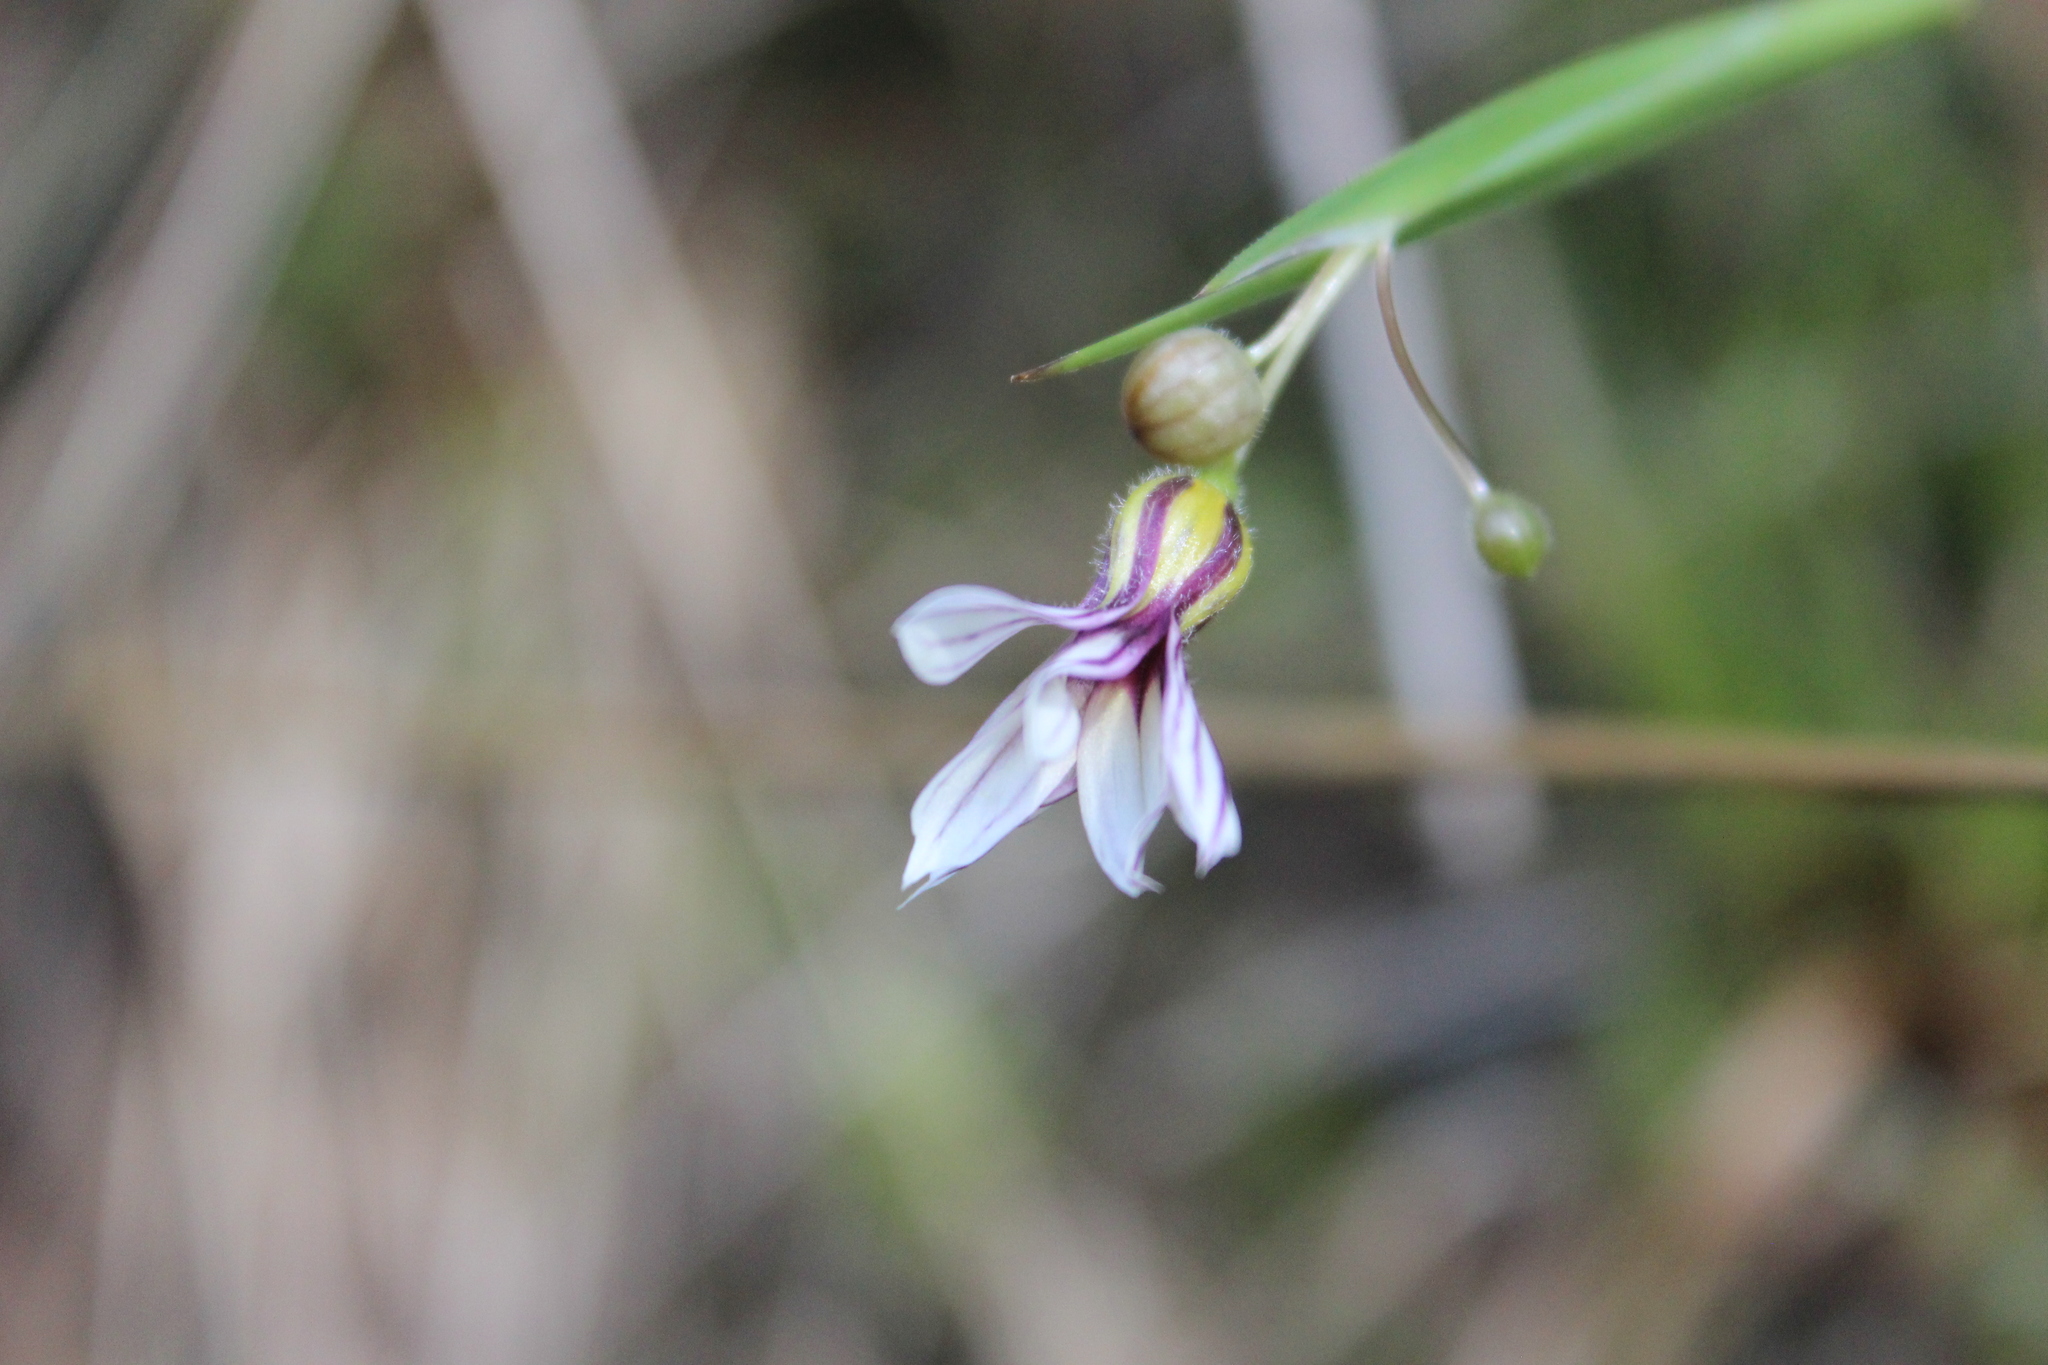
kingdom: Plantae
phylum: Tracheophyta
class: Liliopsida
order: Asparagales
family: Iridaceae
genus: Sisyrinchium
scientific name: Sisyrinchium micranthum
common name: Bermuda pigroot
